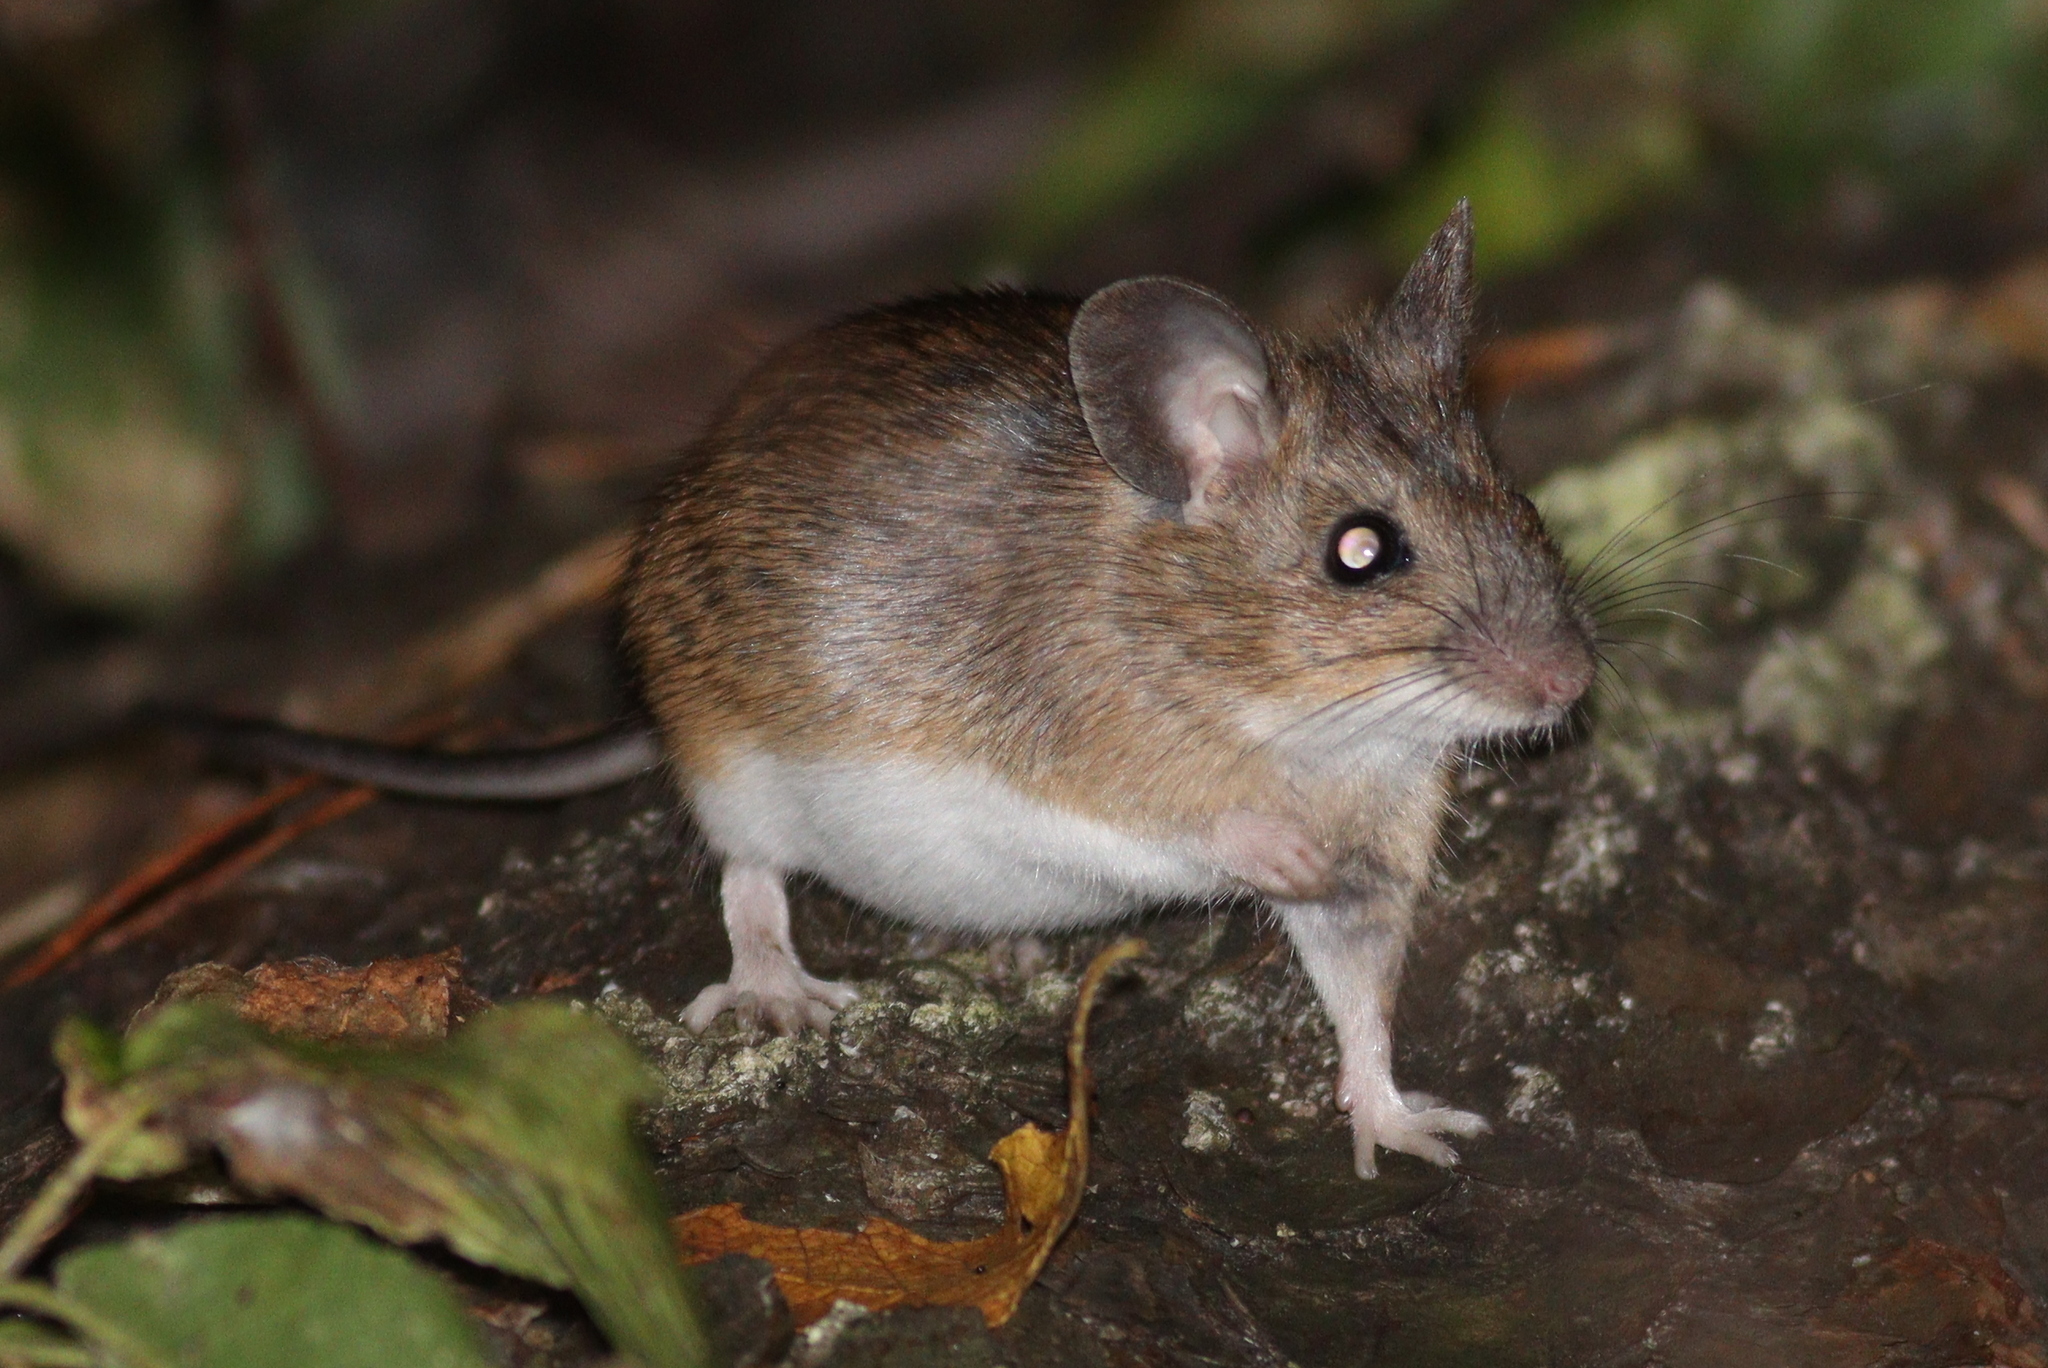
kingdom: Animalia
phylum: Chordata
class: Mammalia
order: Rodentia
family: Muridae
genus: Apodemus
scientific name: Apodemus flavicollis
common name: Yellow-necked field mouse
